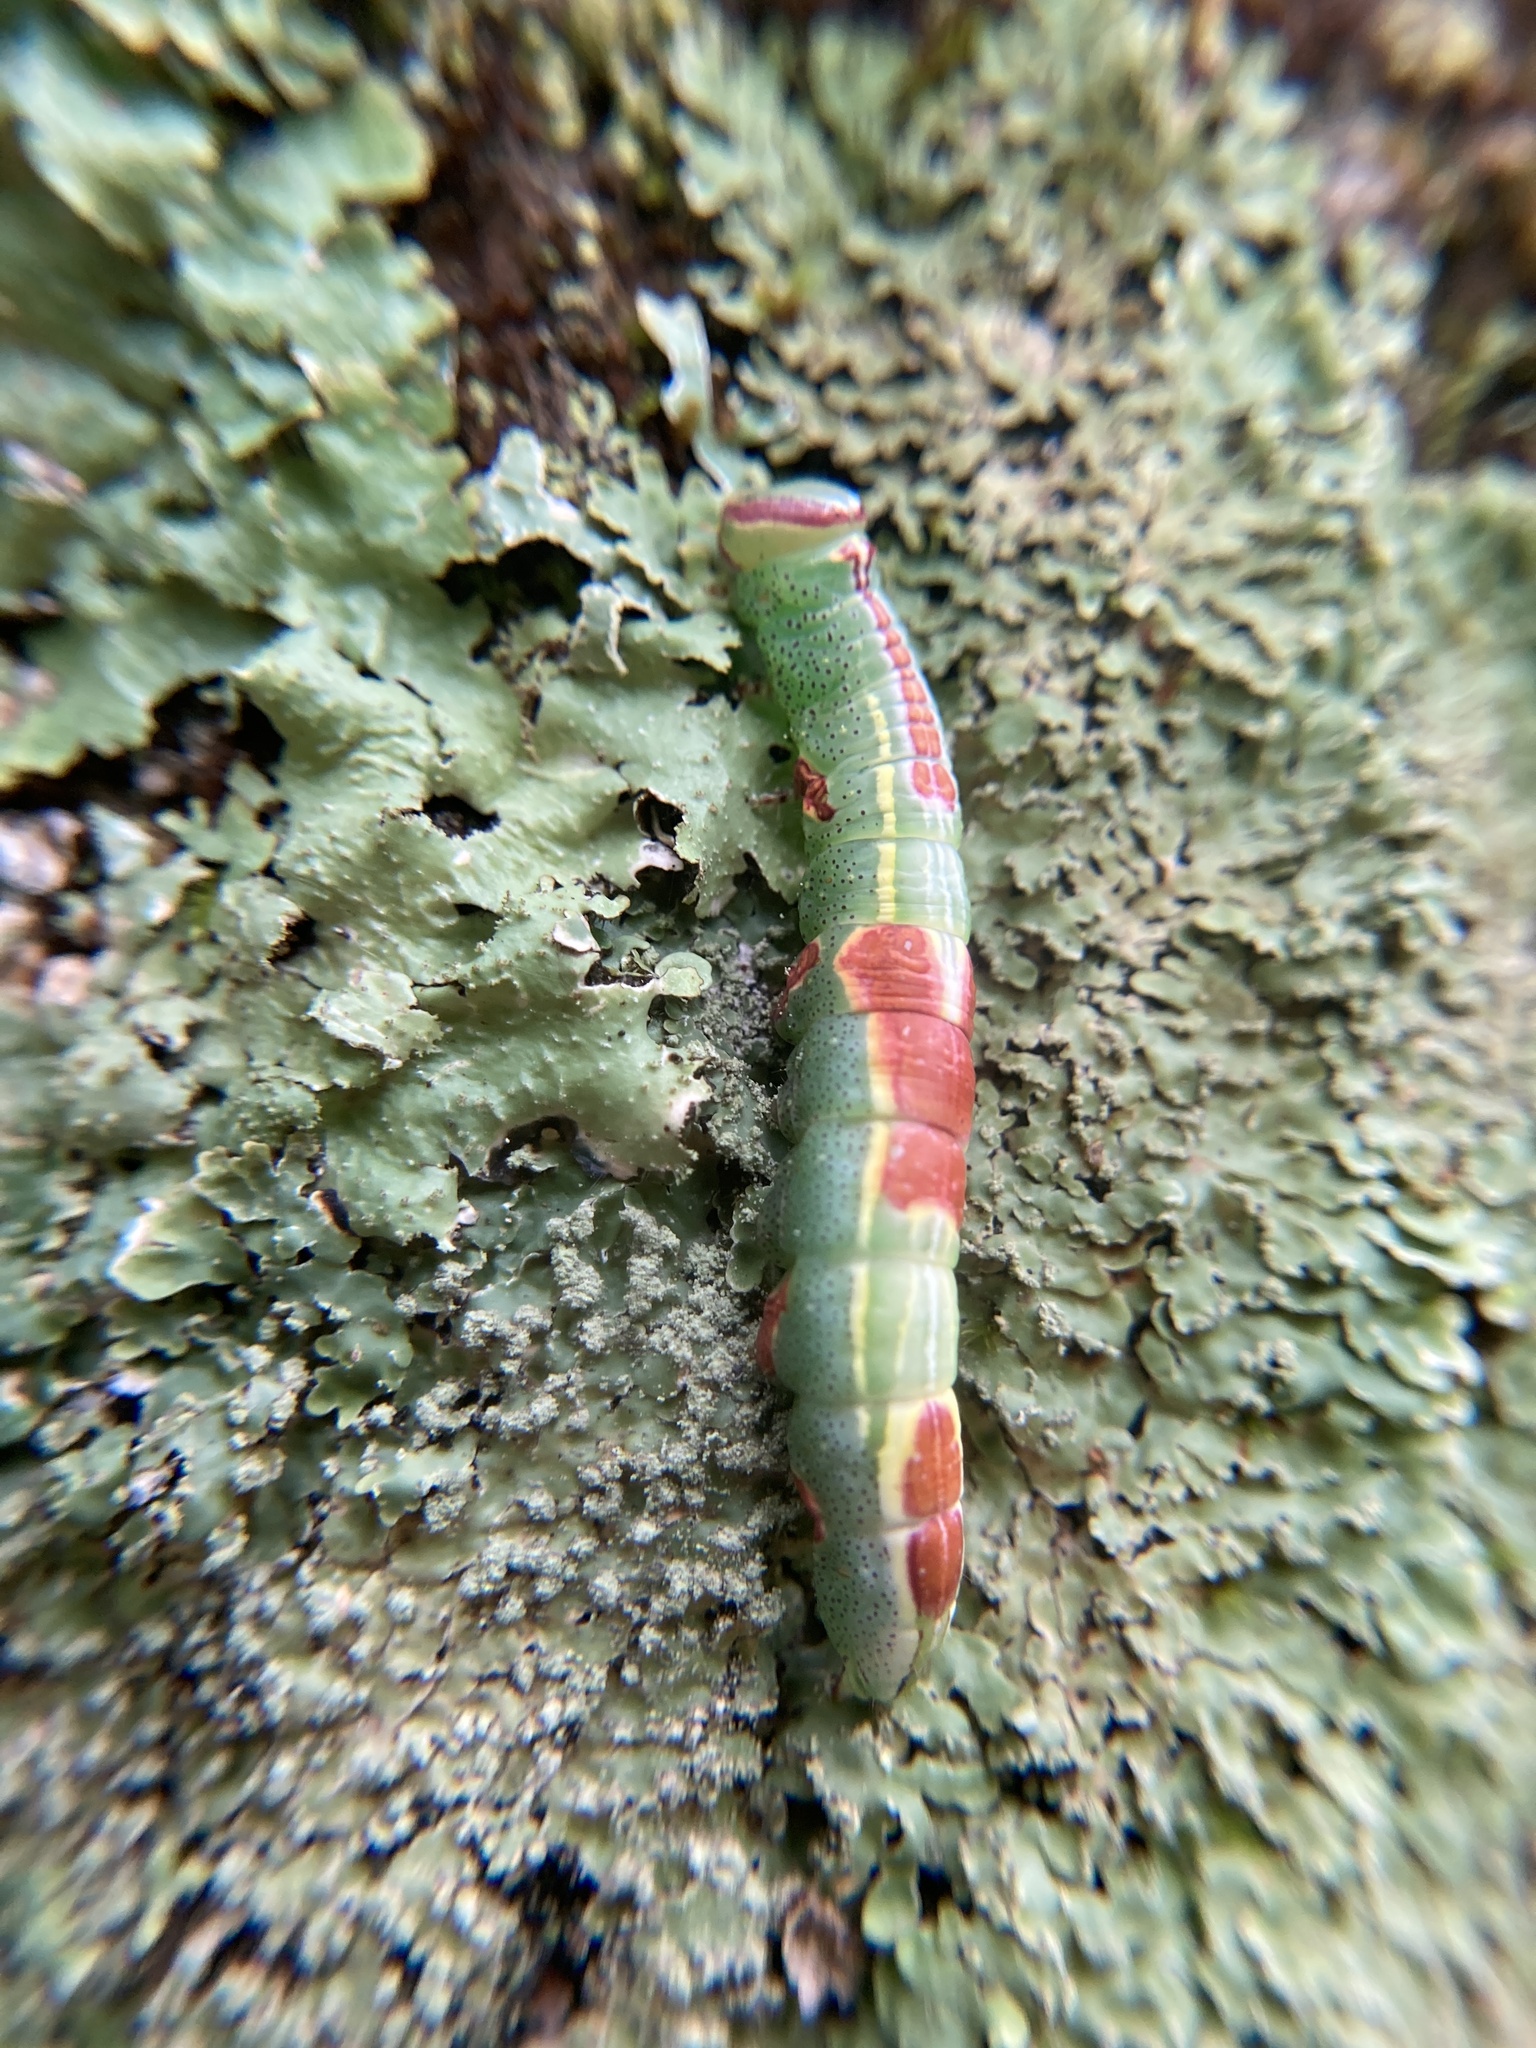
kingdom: Animalia
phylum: Arthropoda
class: Insecta
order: Lepidoptera
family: Notodontidae
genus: Disphragis
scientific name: Disphragis Cecrita guttivitta
